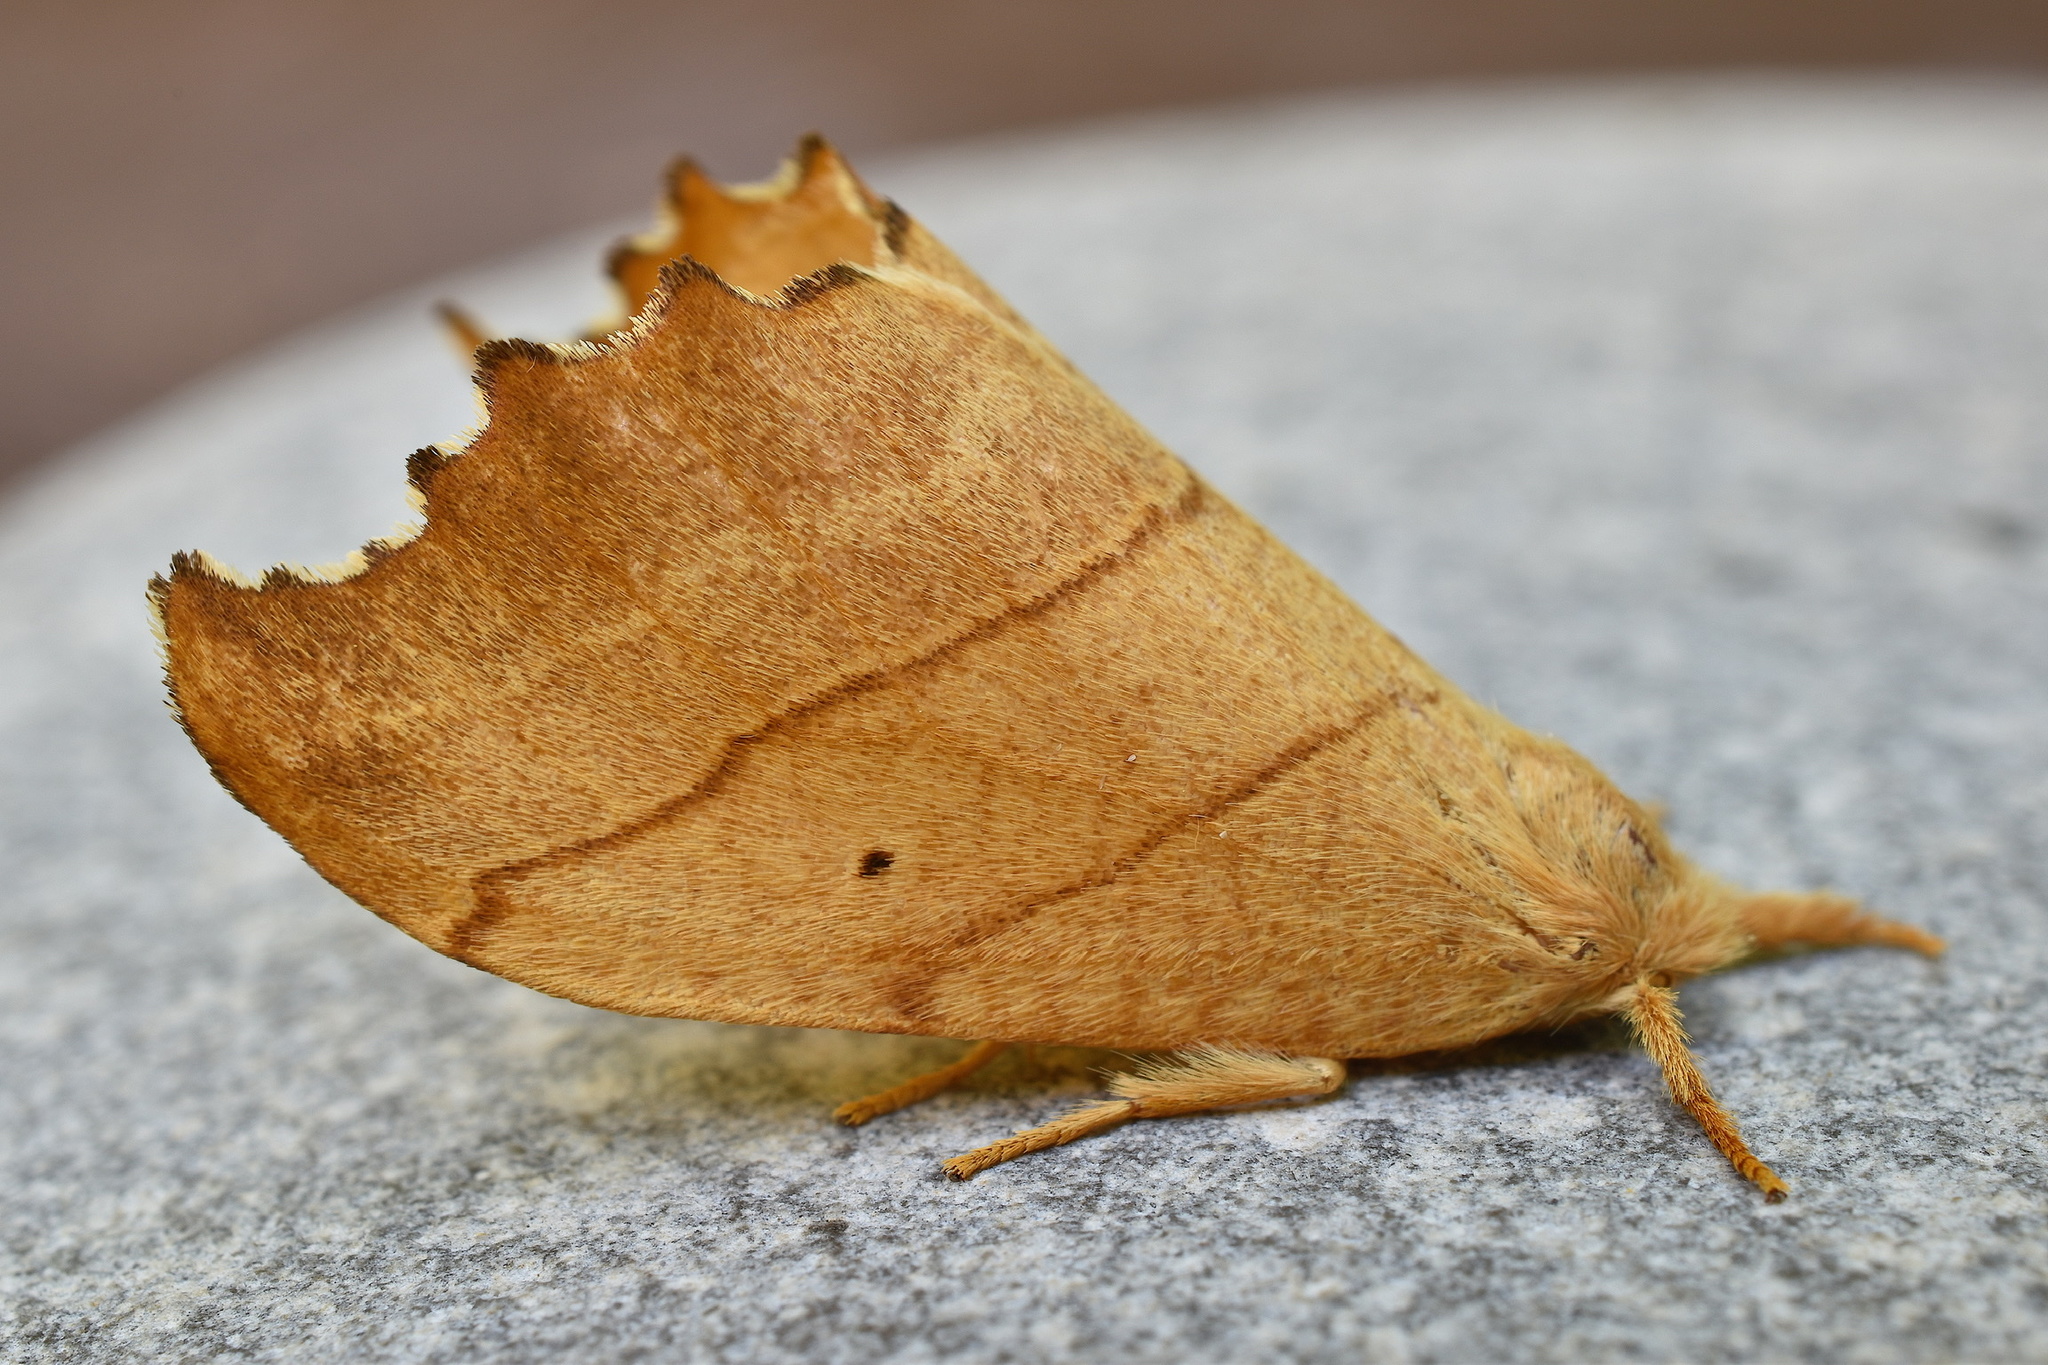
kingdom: Animalia
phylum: Arthropoda
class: Insecta
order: Lepidoptera
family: Drepanidae
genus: Falcaria
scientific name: Falcaria bilineata
